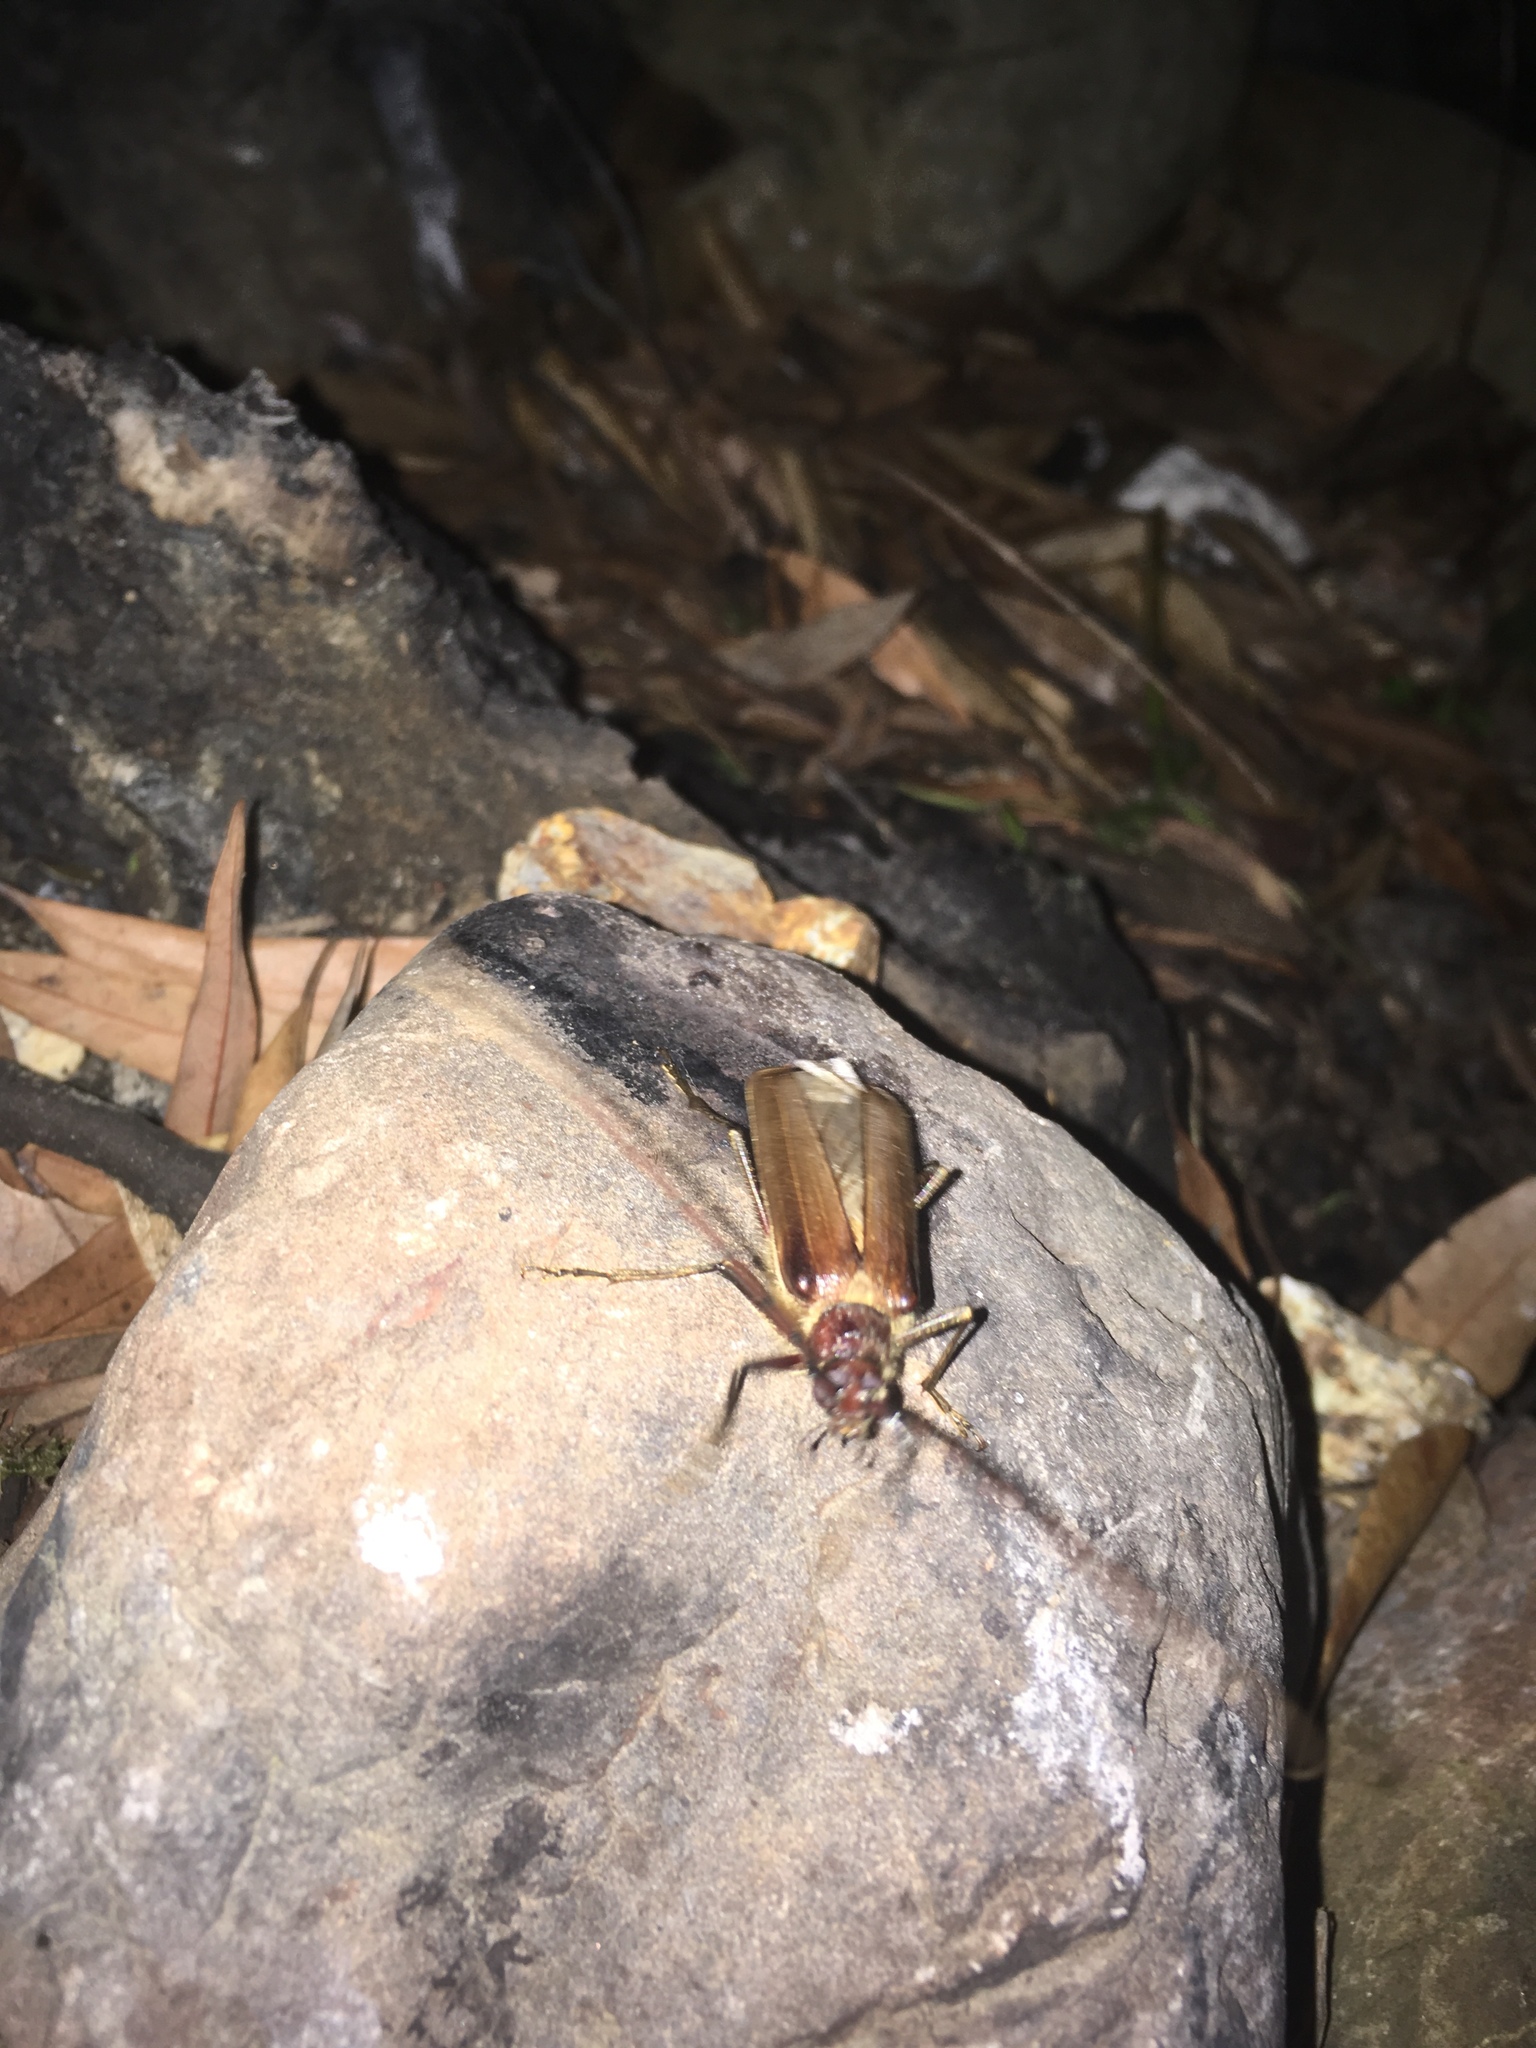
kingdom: Animalia
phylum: Arthropoda
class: Insecta
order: Coleoptera
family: Cerambycidae
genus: Ochrocydus
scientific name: Ochrocydus huttoni
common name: Kanuka longhorn
